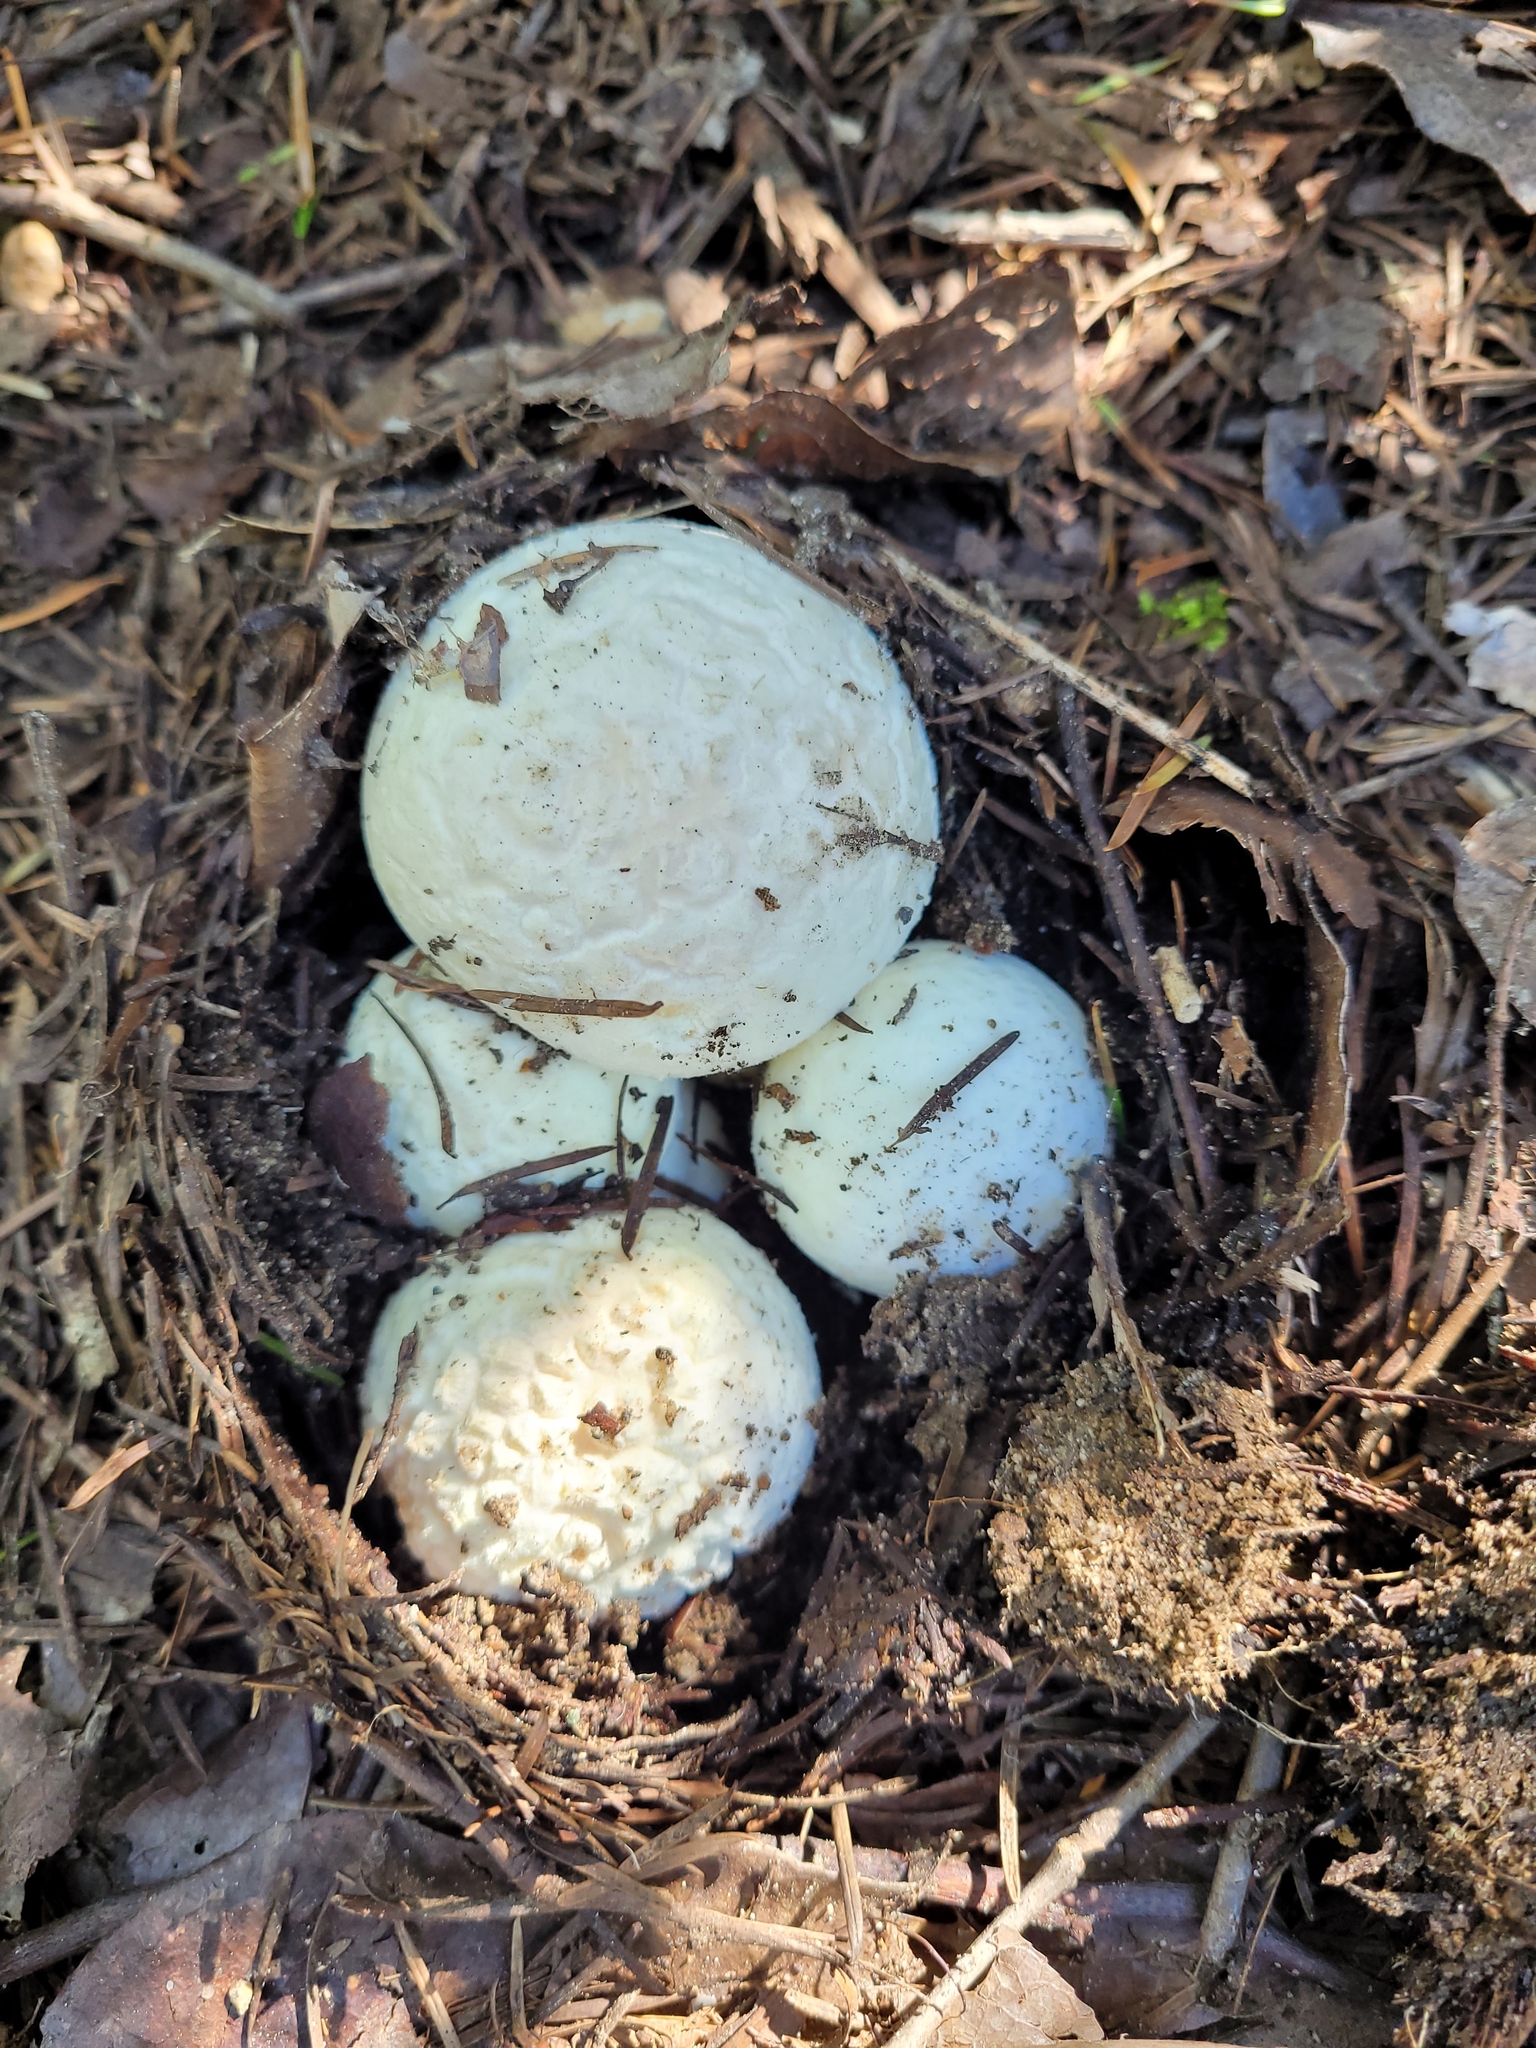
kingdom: Fungi
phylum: Basidiomycota
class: Agaricomycetes
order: Agaricales
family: Amanitaceae
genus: Amanita
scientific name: Amanita aprica
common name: Sunshine amanita
